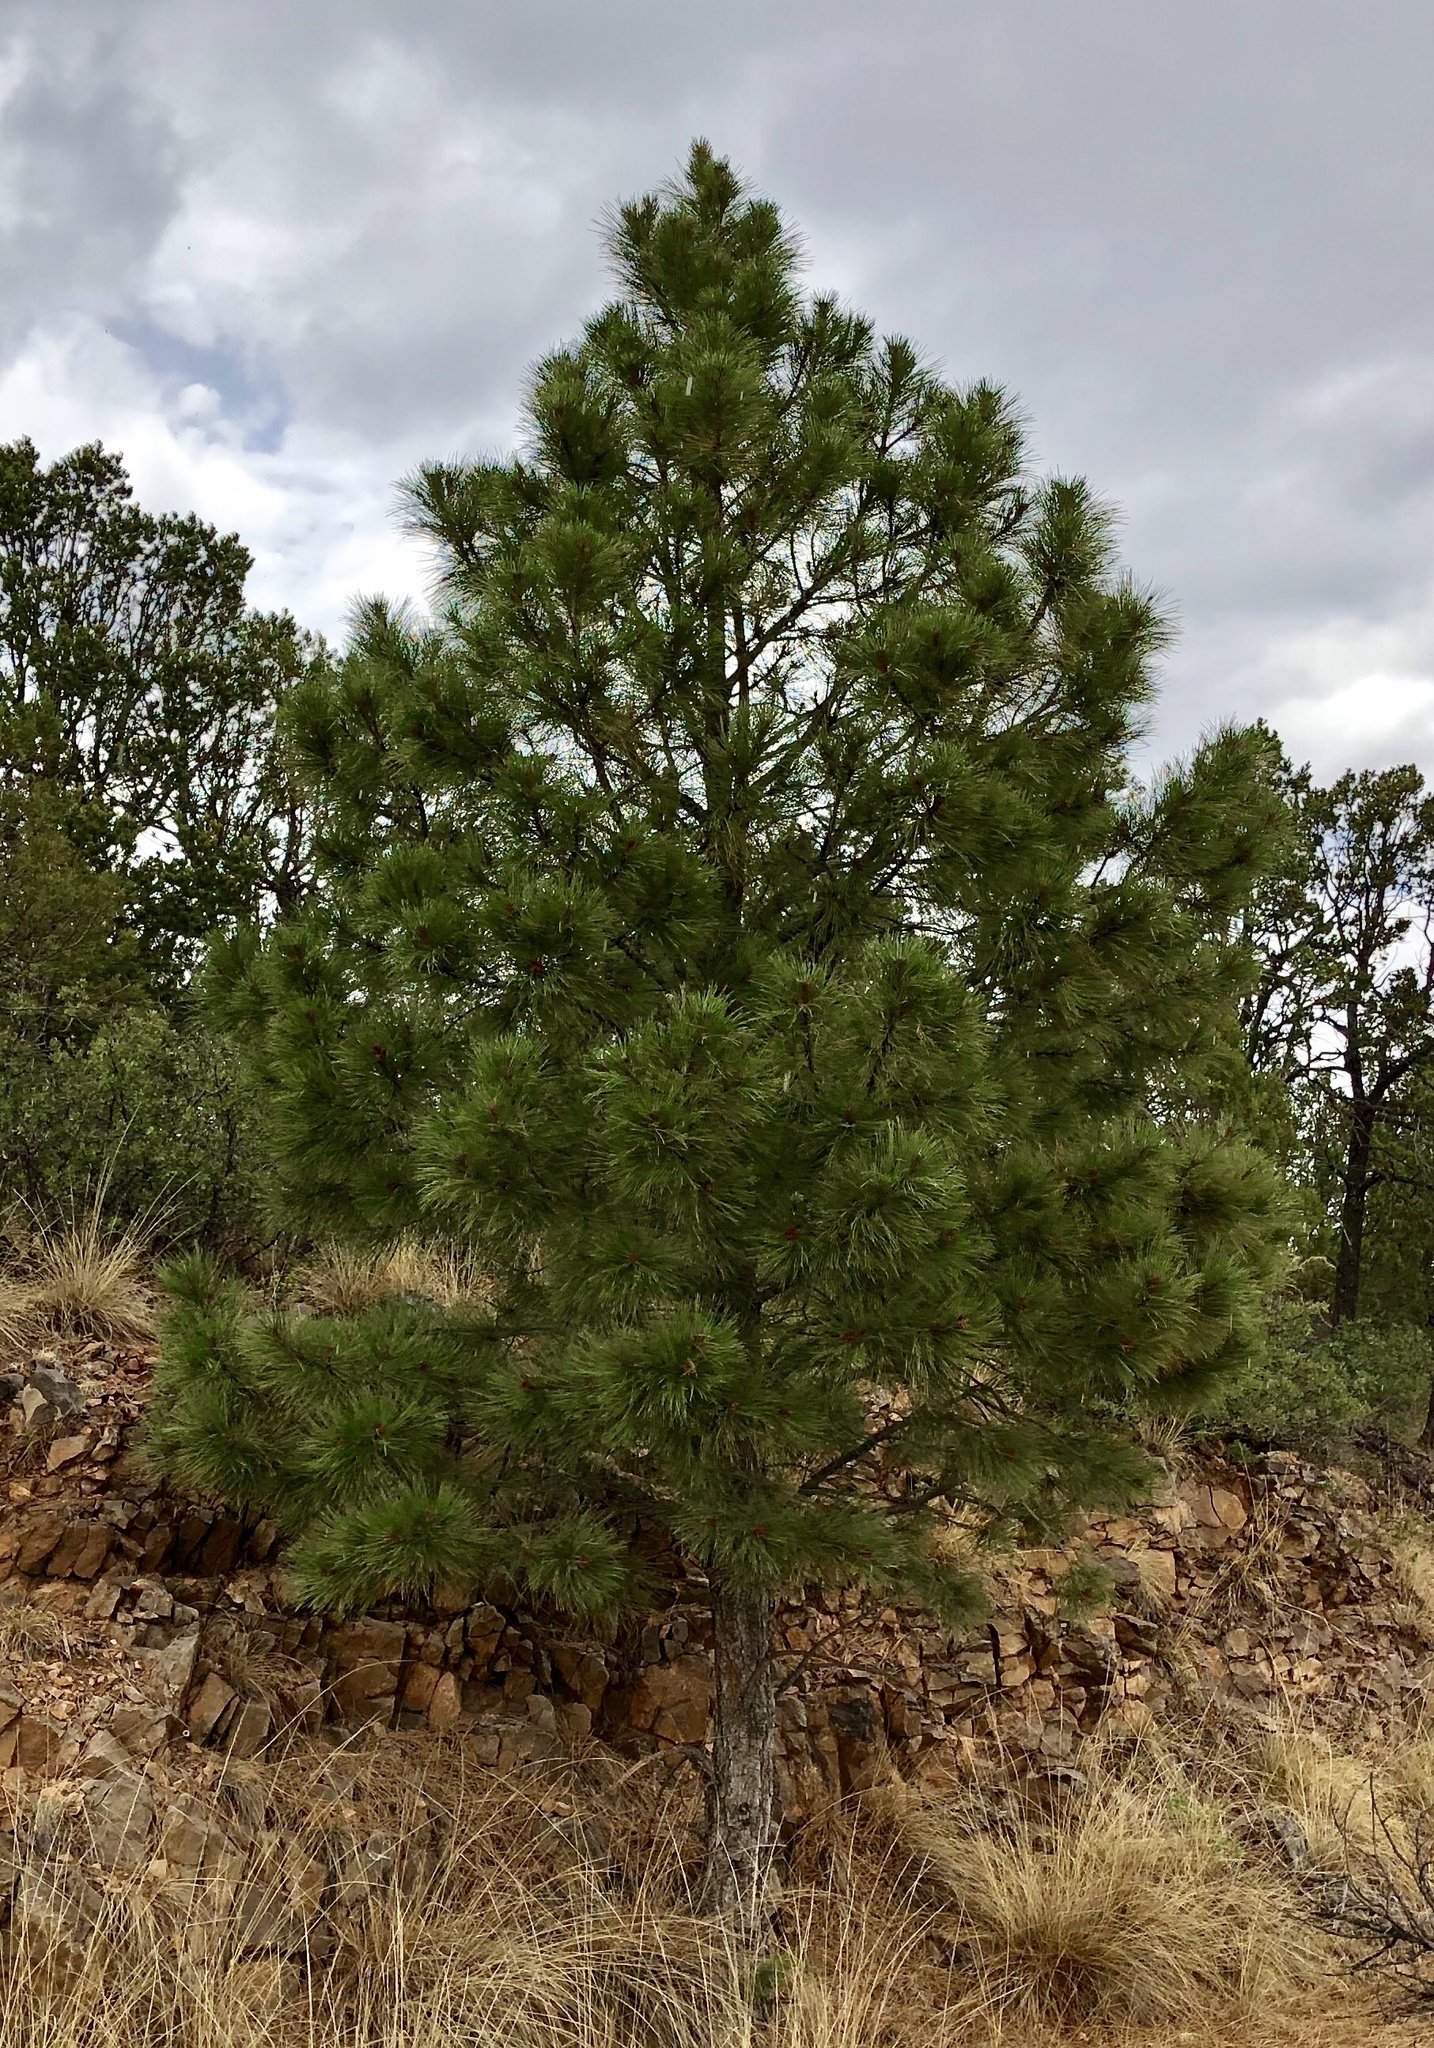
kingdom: Plantae
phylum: Tracheophyta
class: Pinopsida
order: Pinales
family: Pinaceae
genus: Pinus
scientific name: Pinus ponderosa
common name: Western yellow-pine
